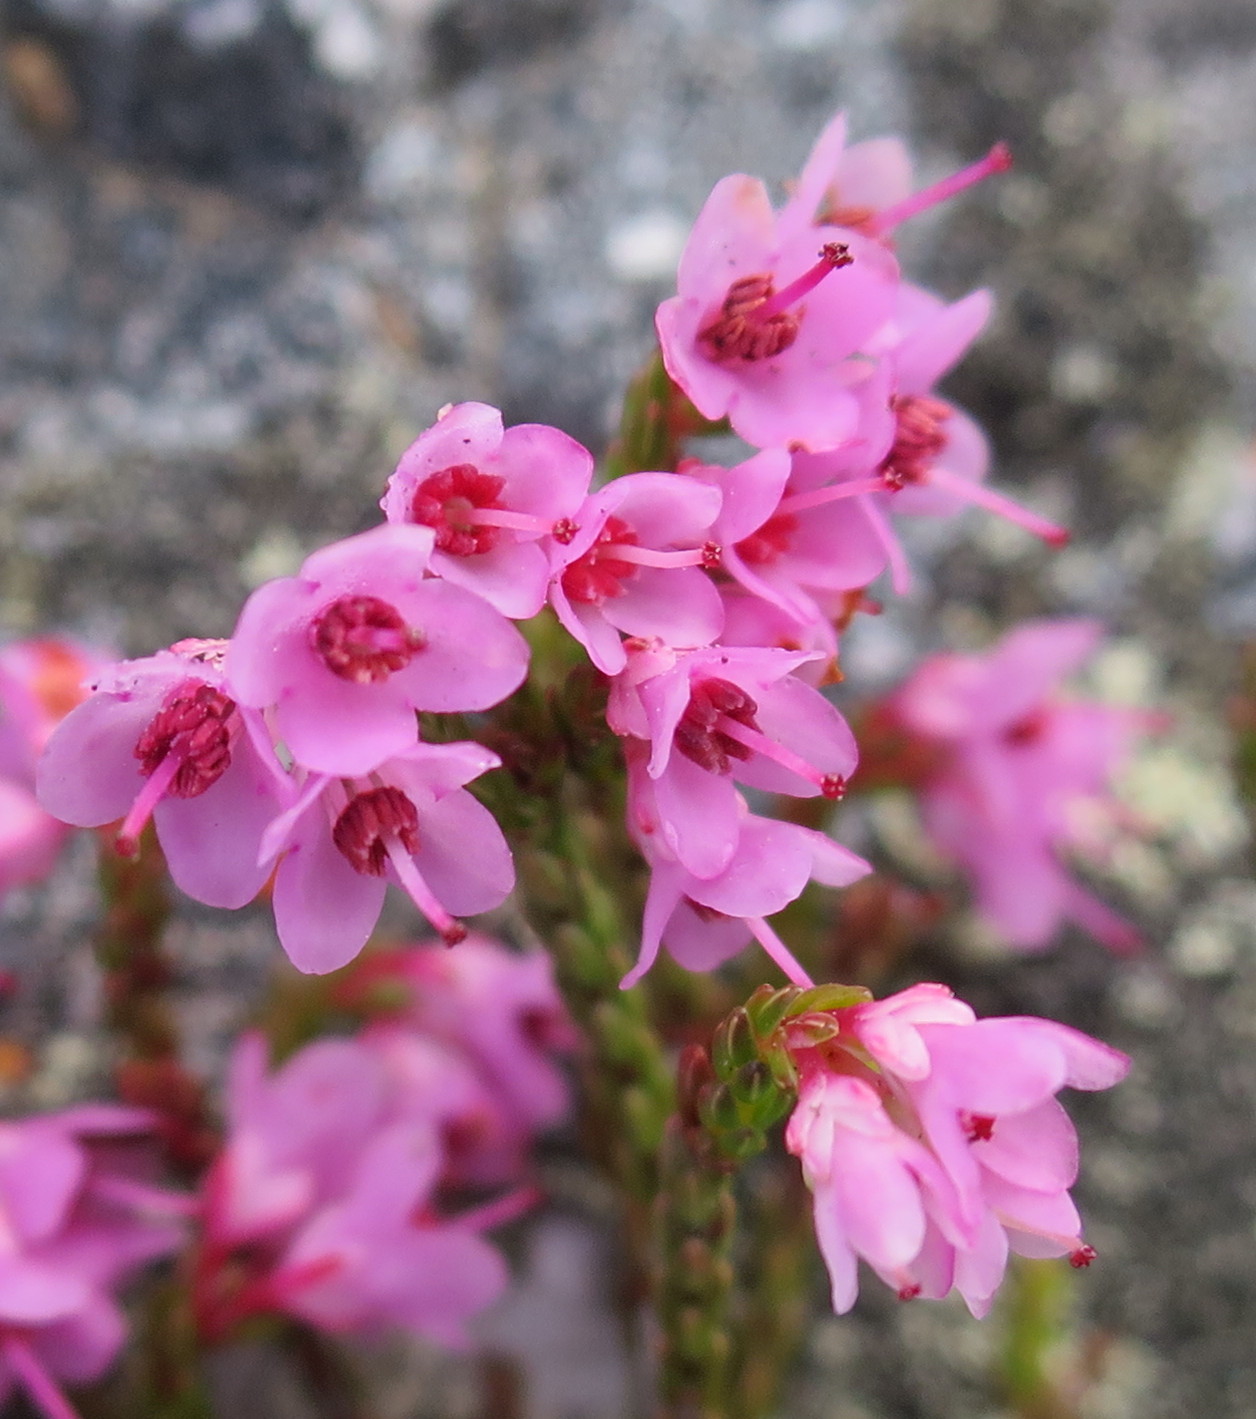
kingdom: Plantae
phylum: Tracheophyta
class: Magnoliopsida
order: Ericales
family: Ericaceae
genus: Erica
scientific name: Erica humifusa
